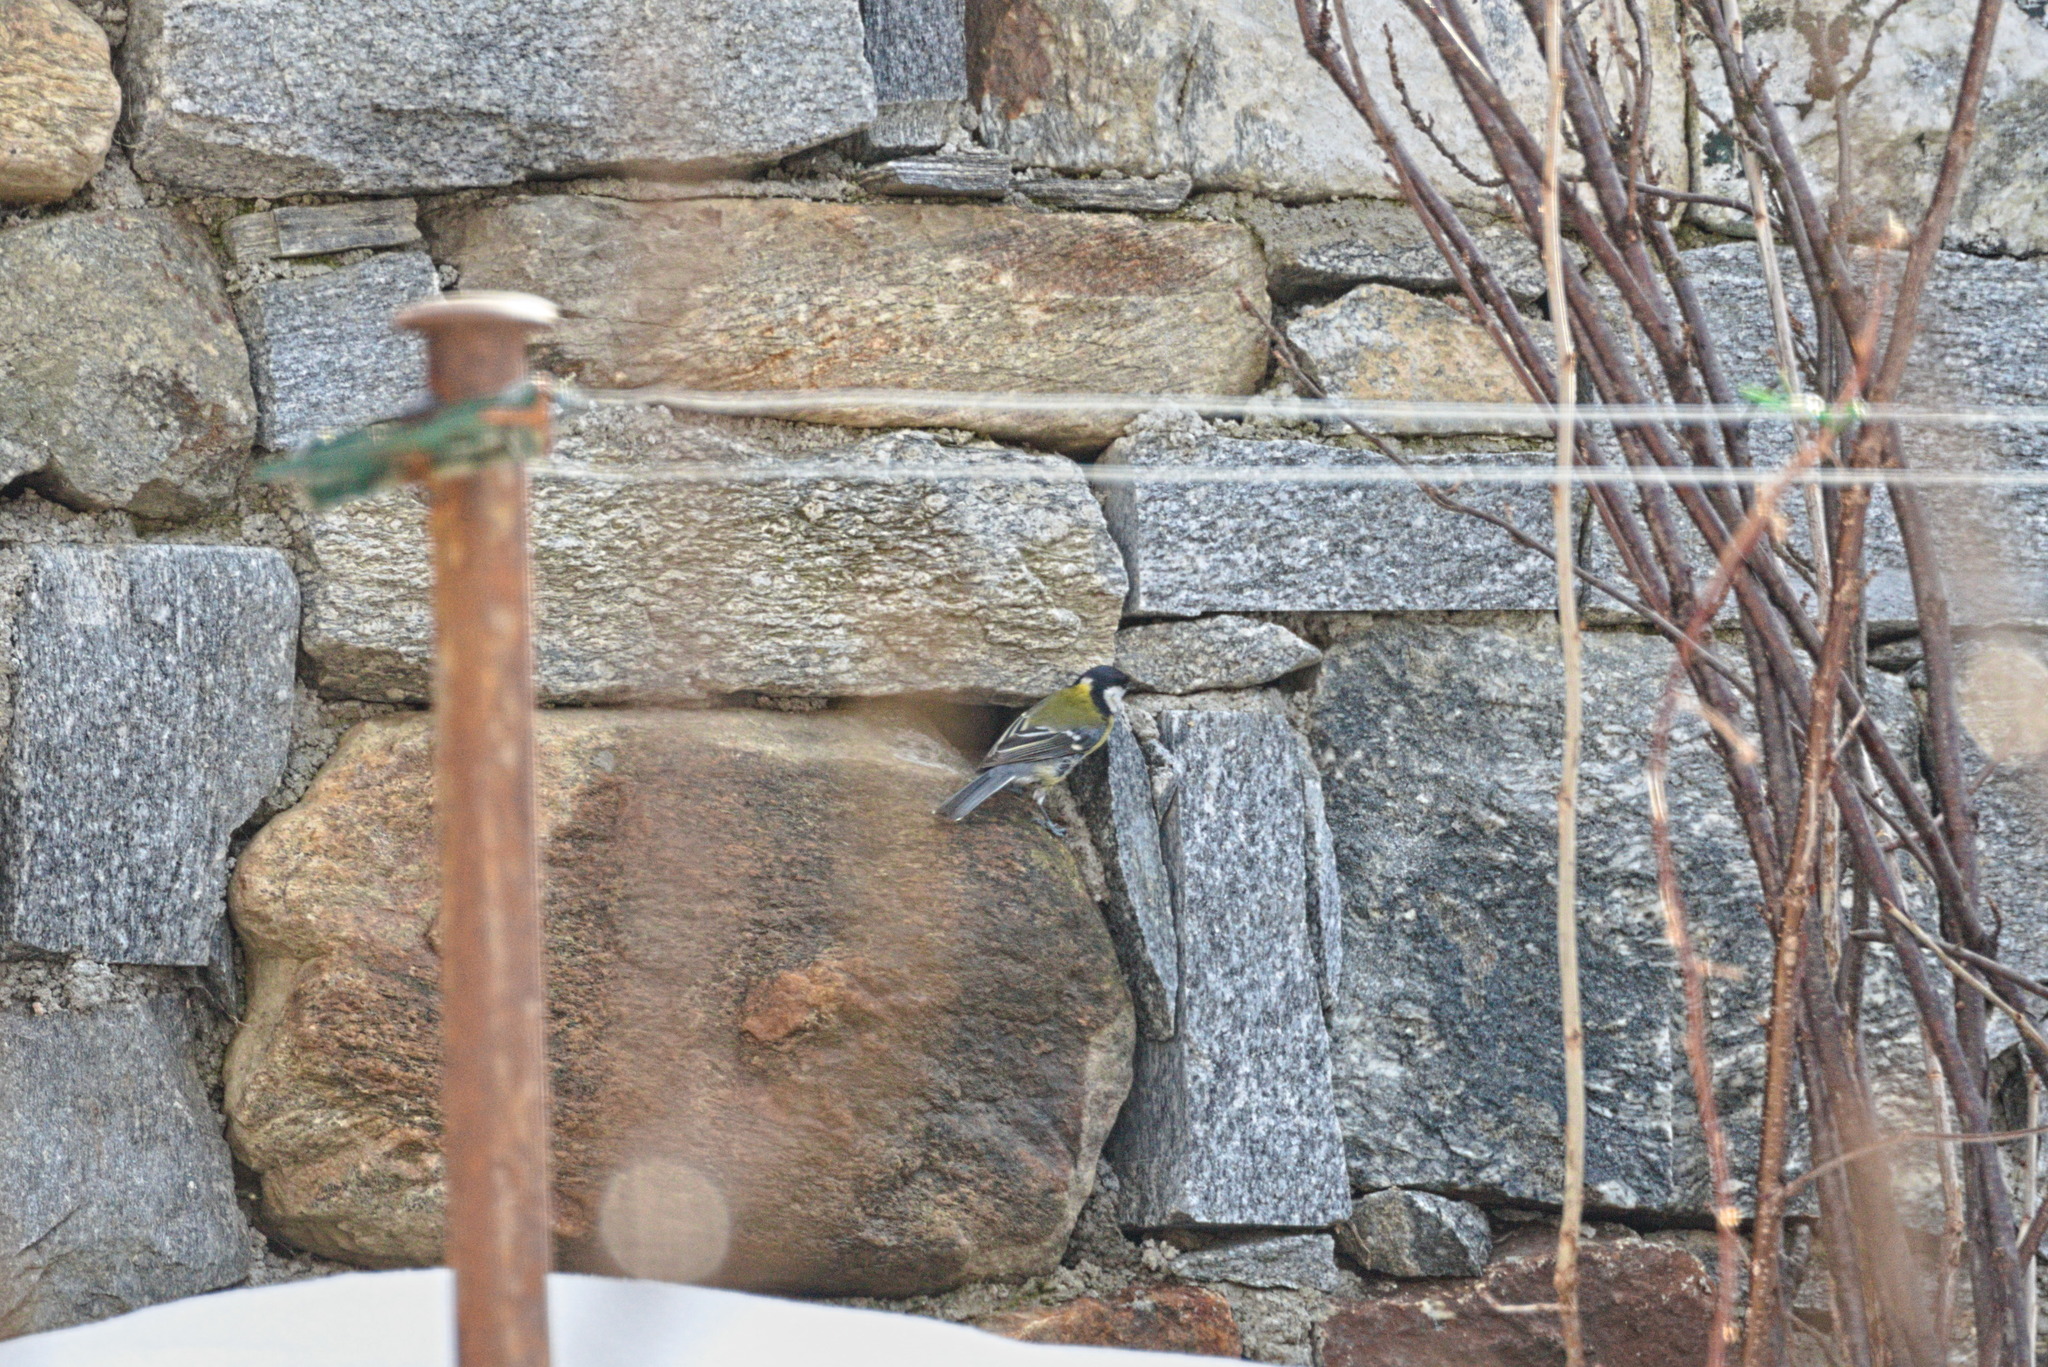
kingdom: Animalia
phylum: Chordata
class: Aves
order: Passeriformes
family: Paridae
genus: Parus
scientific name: Parus major
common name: Great tit
